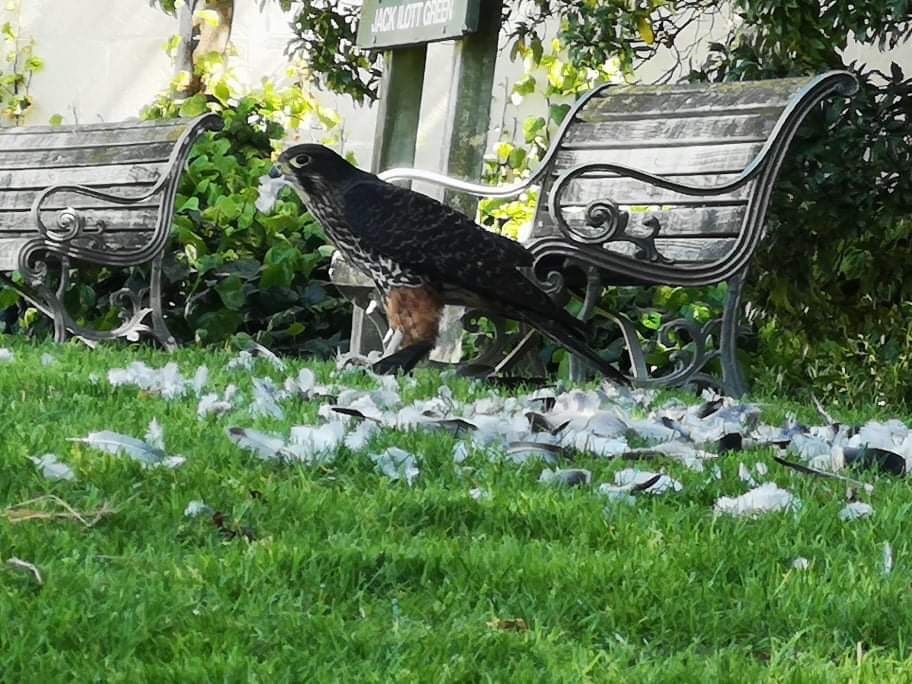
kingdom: Animalia
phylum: Chordata
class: Aves
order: Falconiformes
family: Falconidae
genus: Falco
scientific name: Falco novaeseelandiae
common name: New zealand falcon
